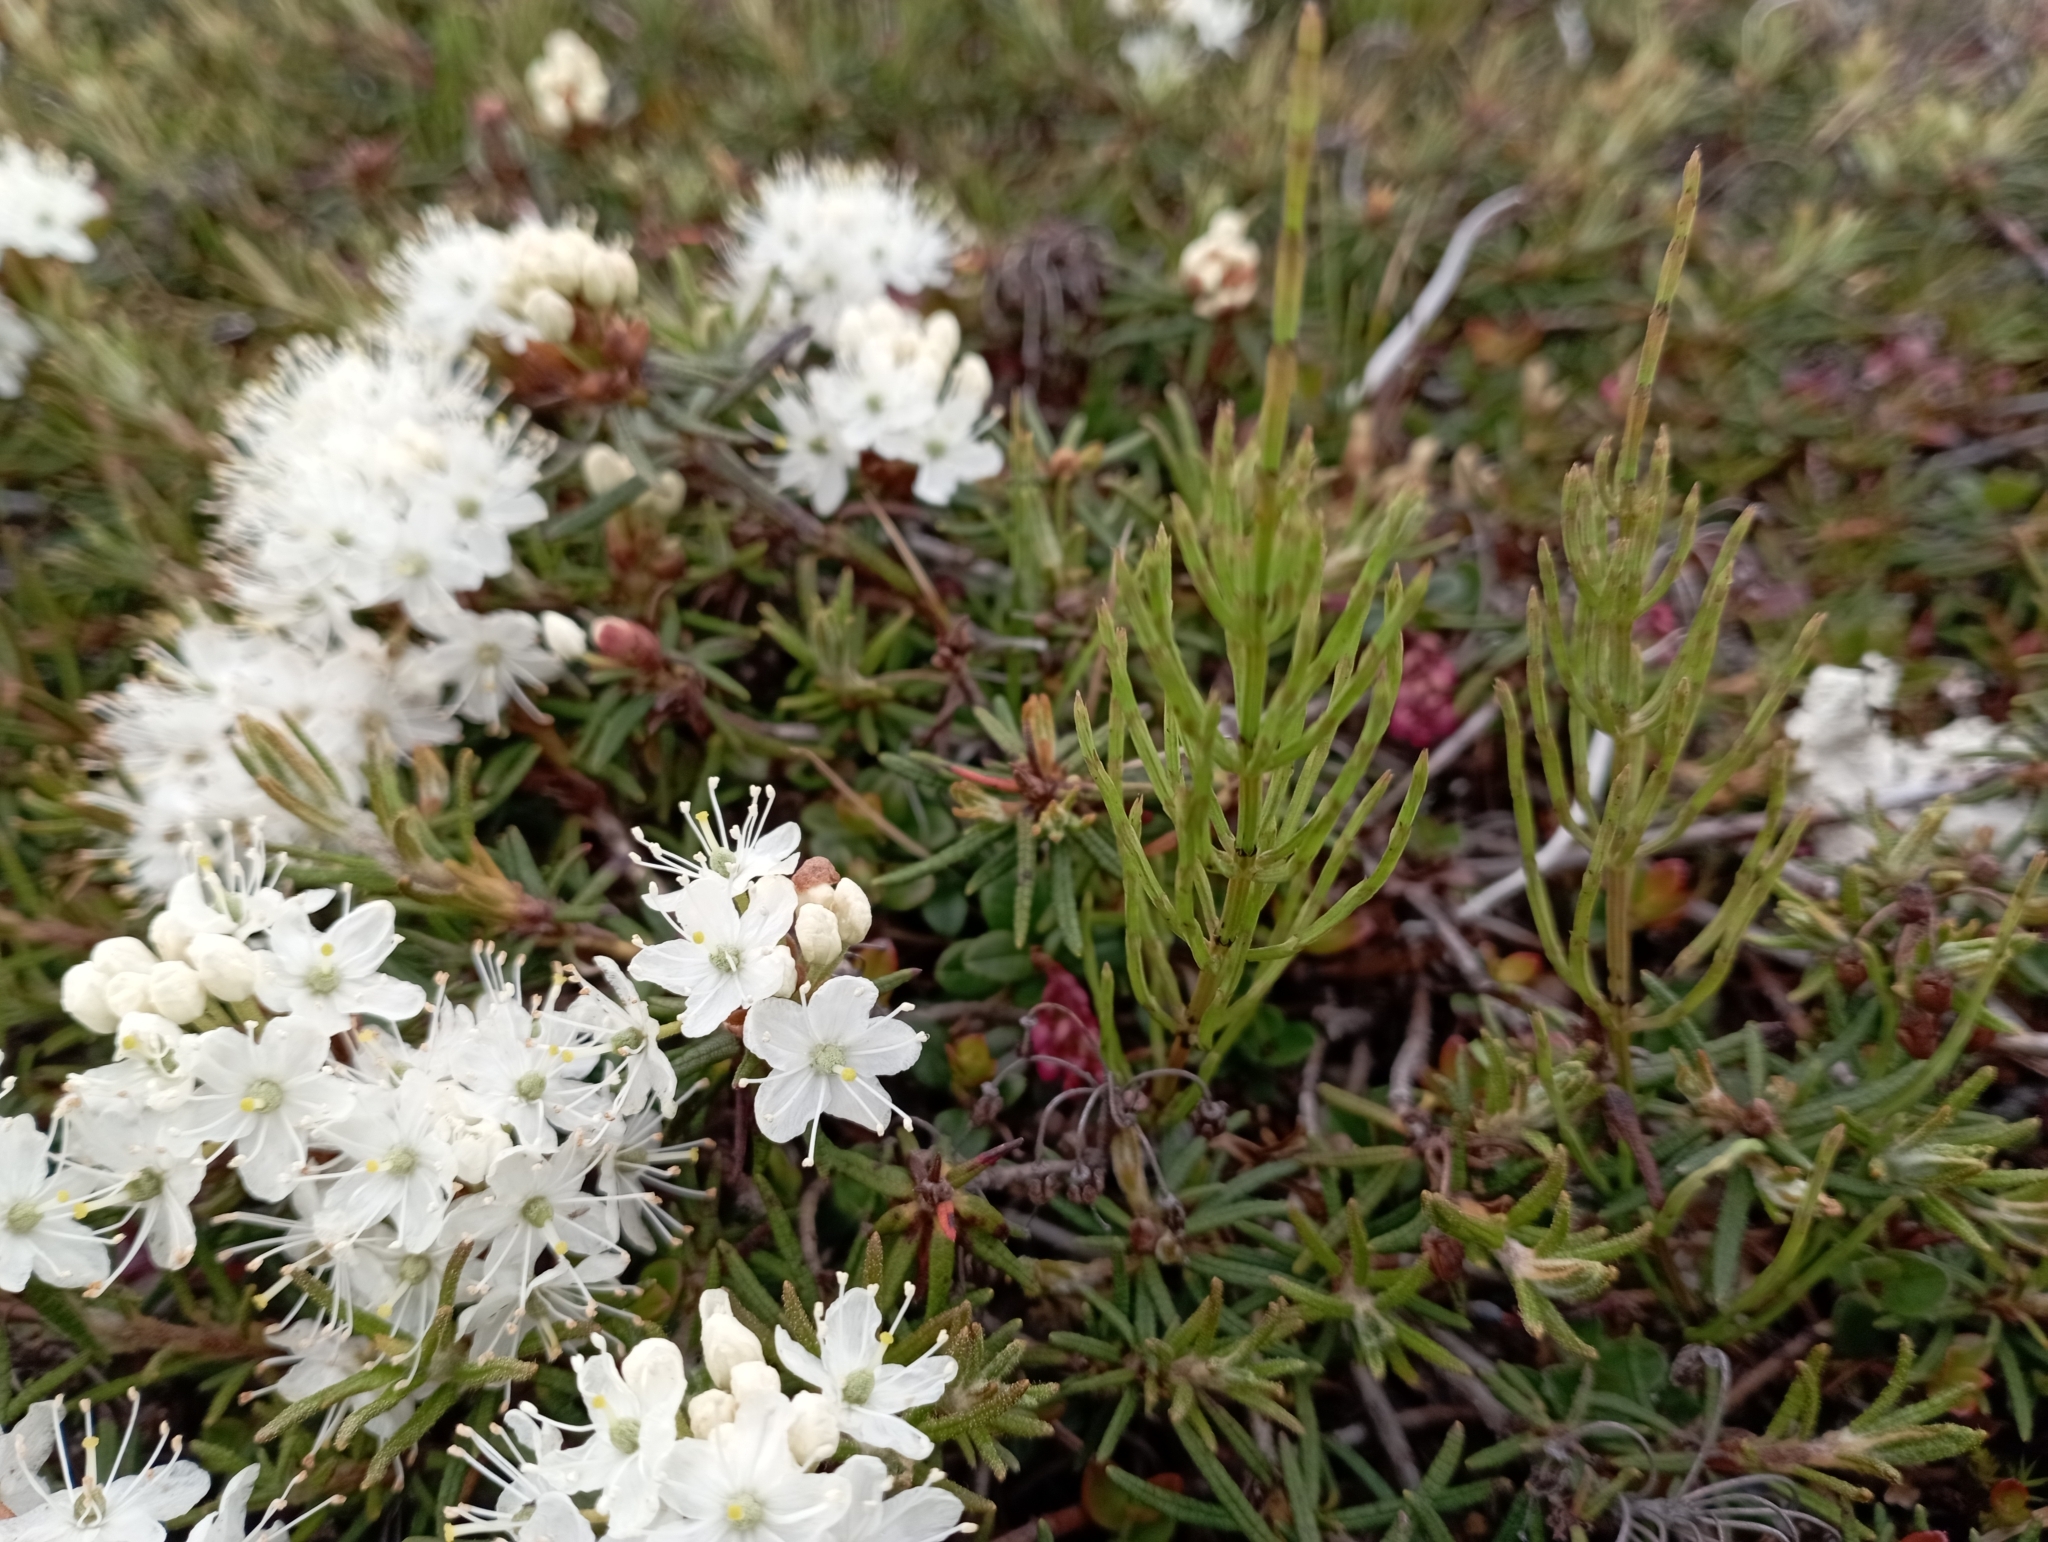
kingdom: Plantae
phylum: Tracheophyta
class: Magnoliopsida
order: Ericales
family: Ericaceae
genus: Rhododendron
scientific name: Rhododendron tomentosum
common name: Marsh labrador tea
